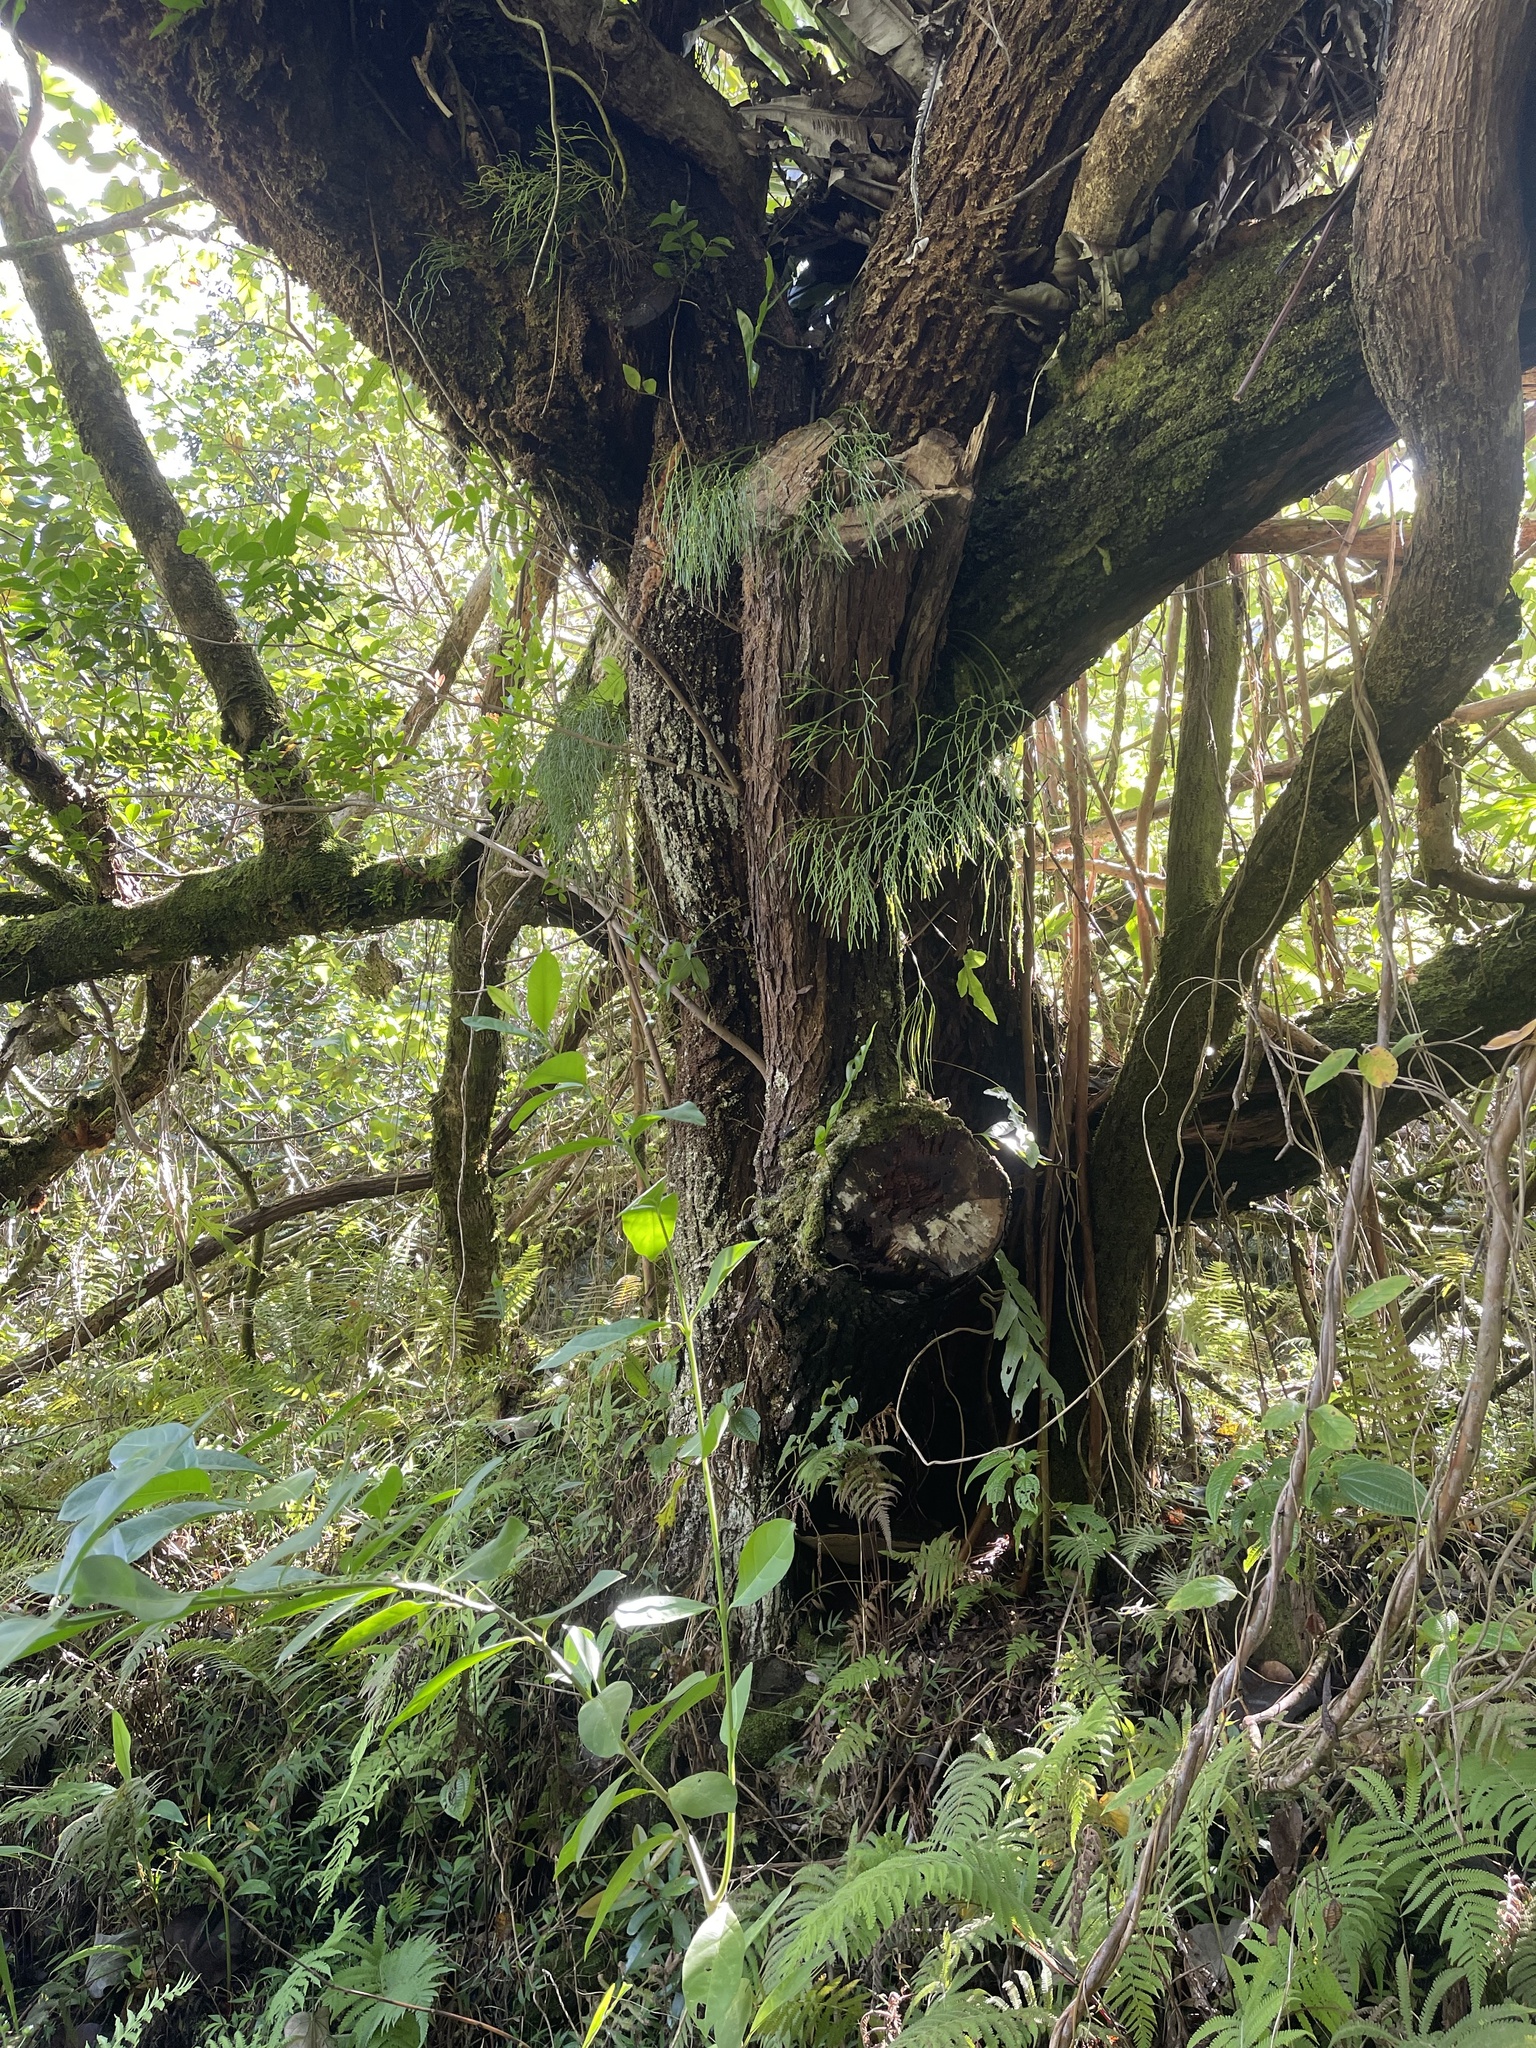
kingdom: Plantae
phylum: Tracheophyta
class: Polypodiopsida
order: Psilotales
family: Psilotaceae
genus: Psilotum
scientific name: Psilotum nudum
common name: Skeleton fork fern
